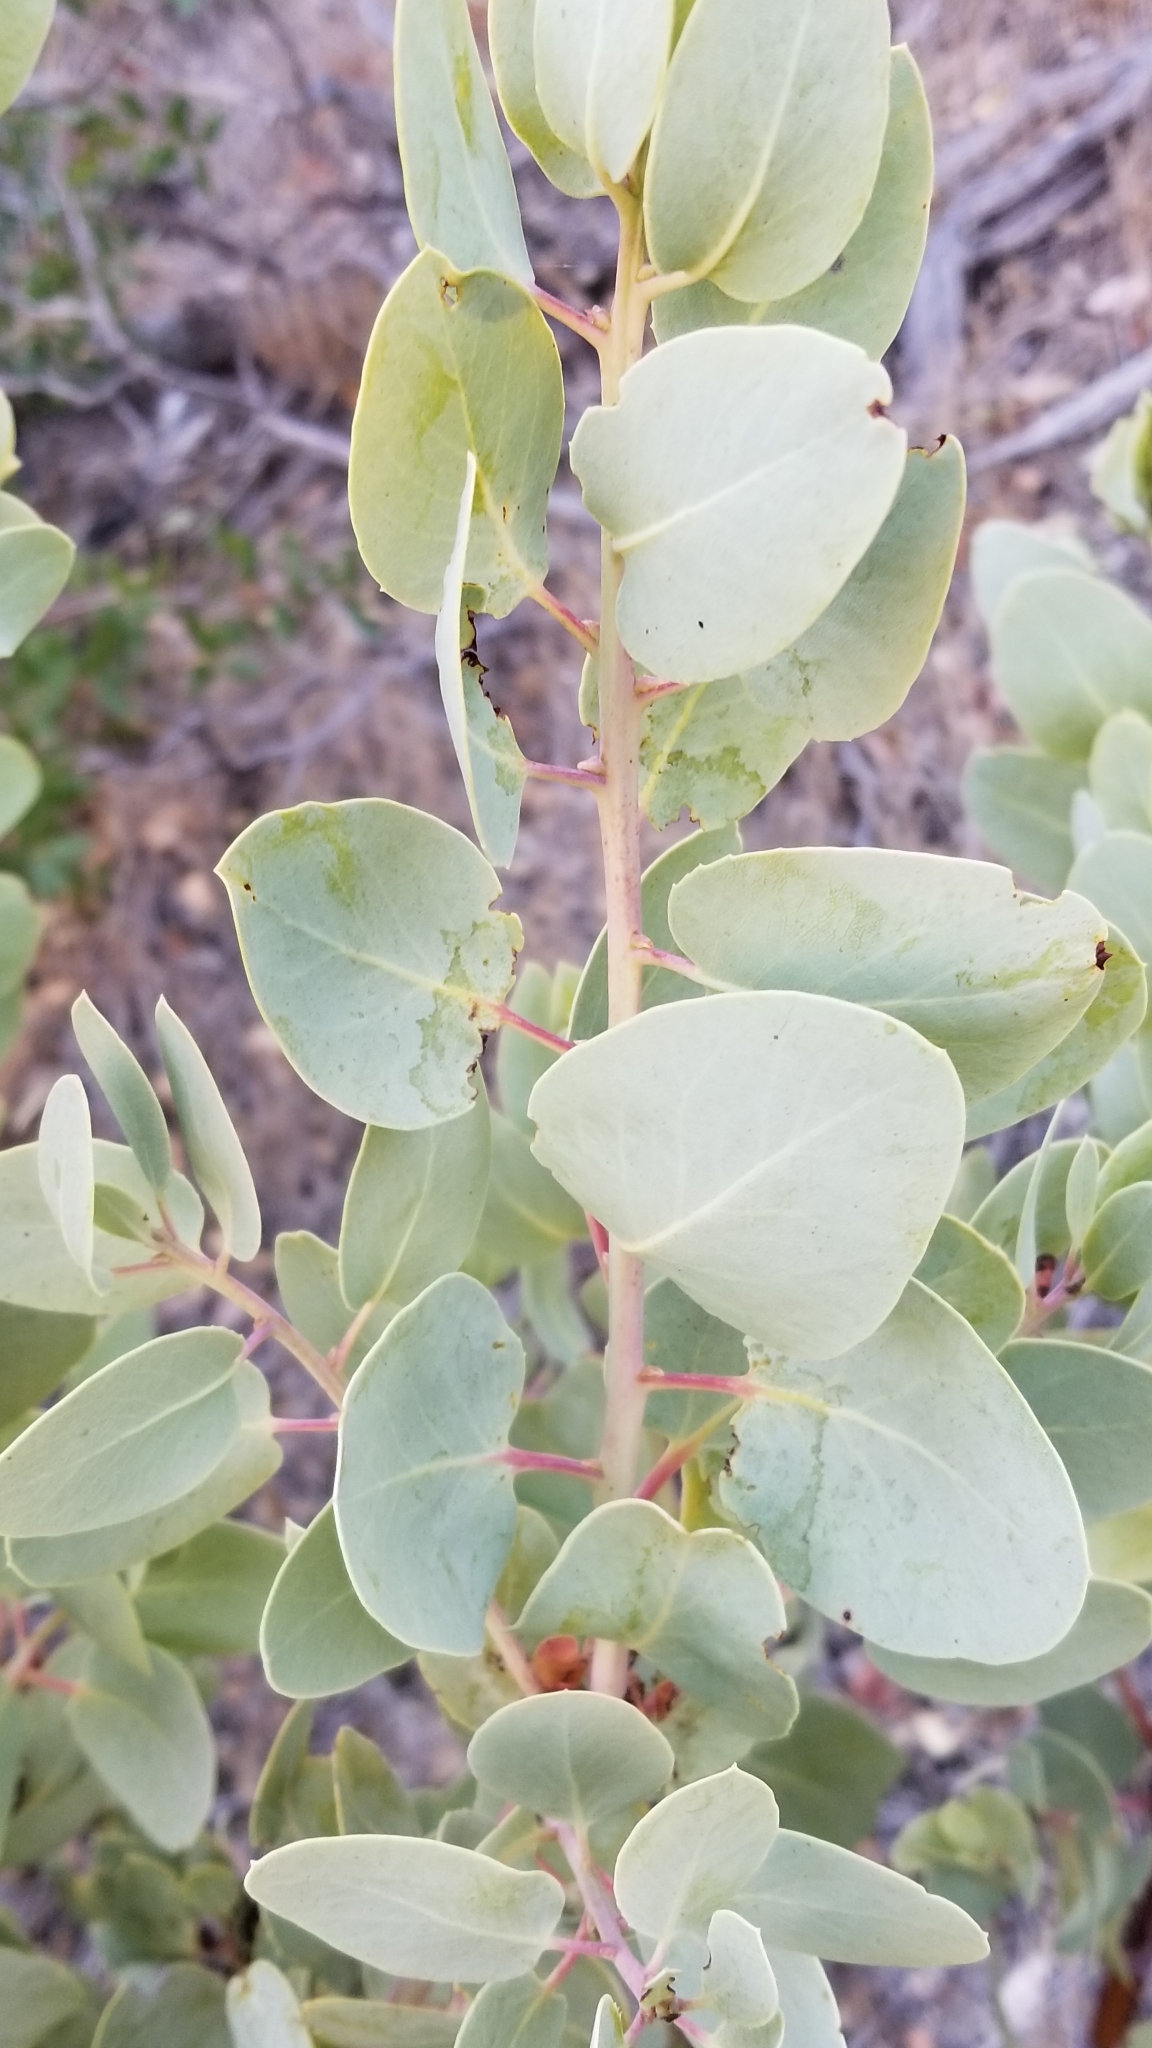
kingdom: Plantae
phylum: Tracheophyta
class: Magnoliopsida
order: Ericales
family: Ericaceae
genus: Arctostaphylos
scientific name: Arctostaphylos glauca
